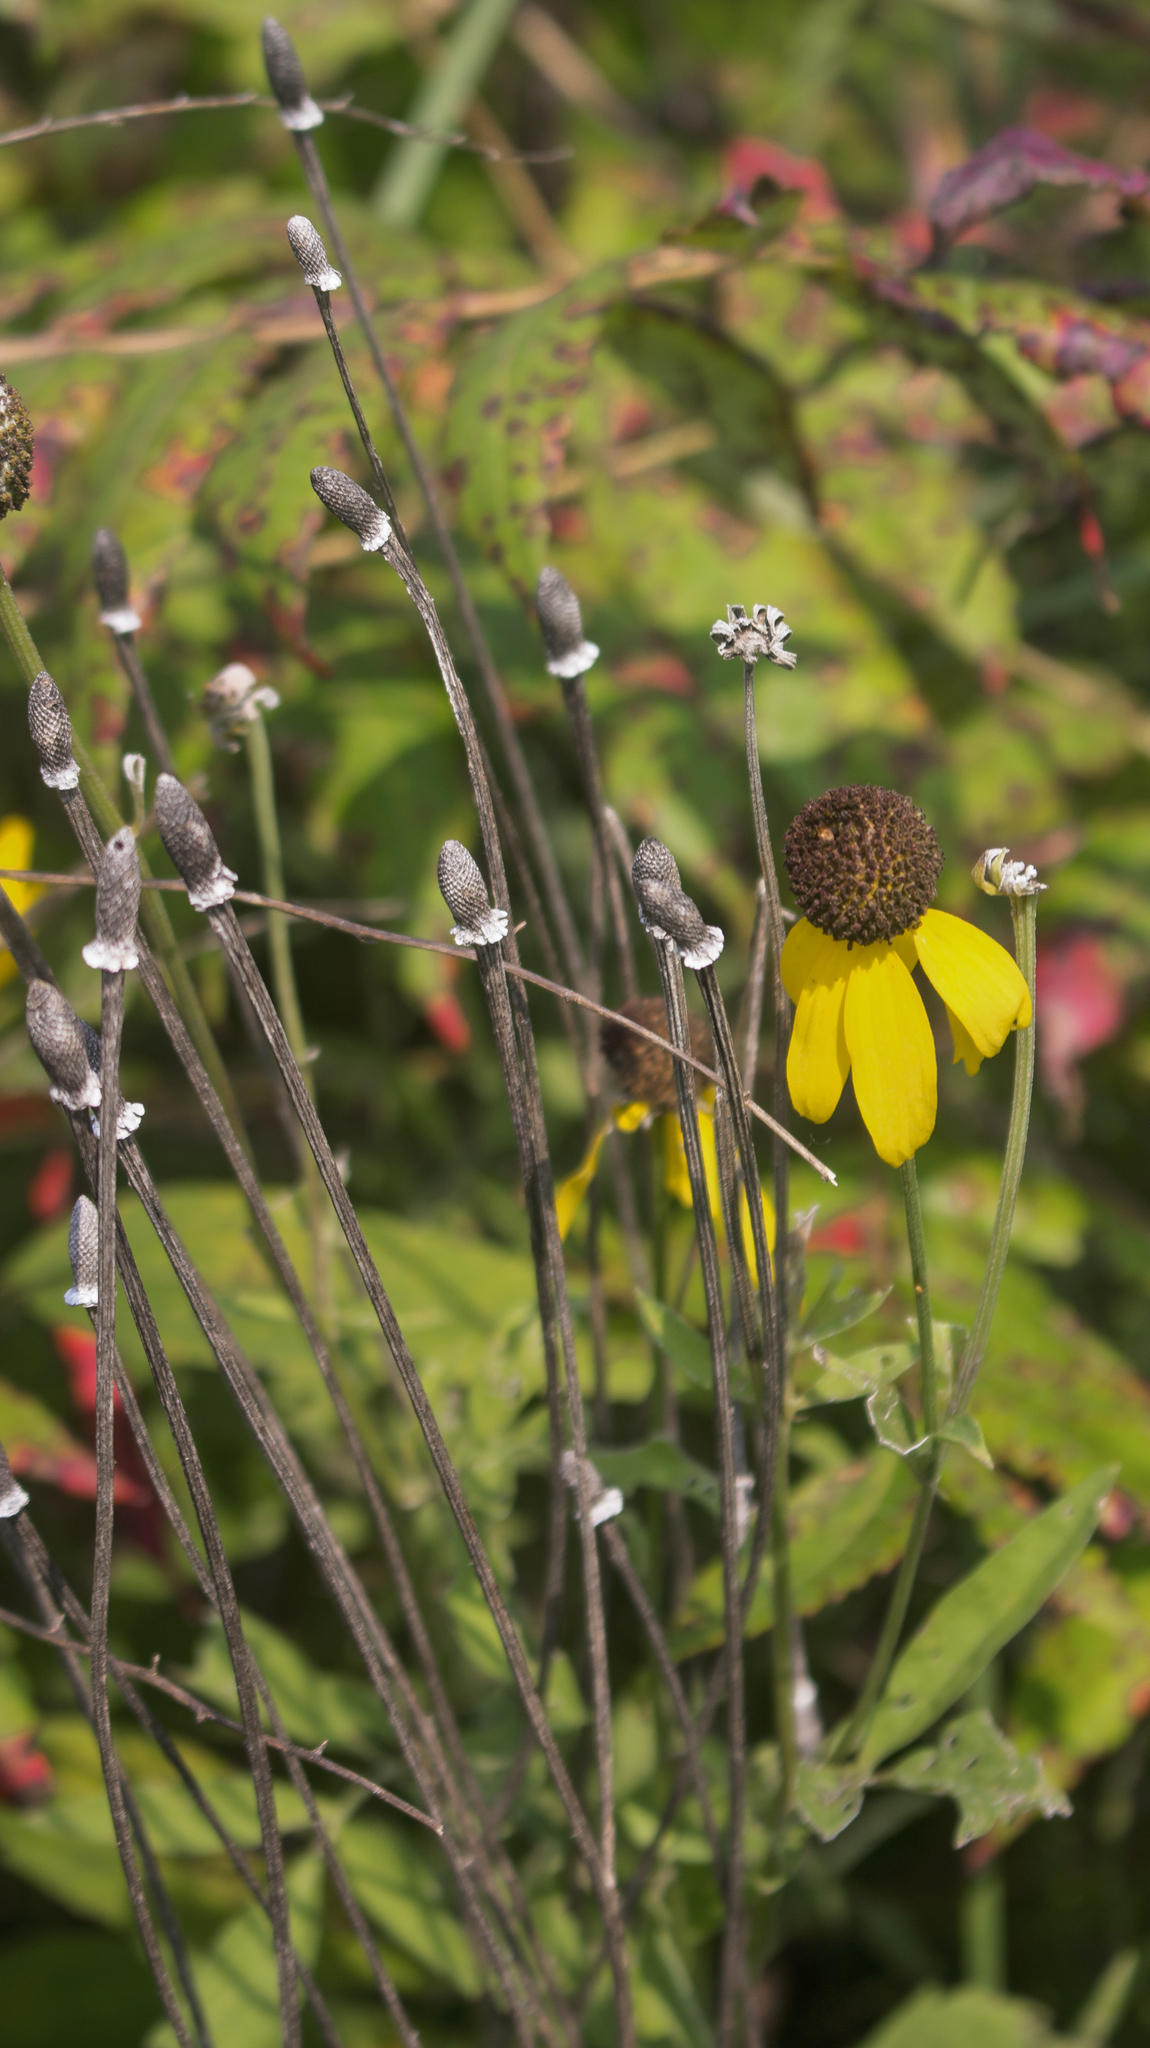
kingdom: Plantae
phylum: Tracheophyta
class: Magnoliopsida
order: Asterales
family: Asteraceae
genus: Ratibida
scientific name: Ratibida pinnata
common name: Drooping prairie-coneflower
